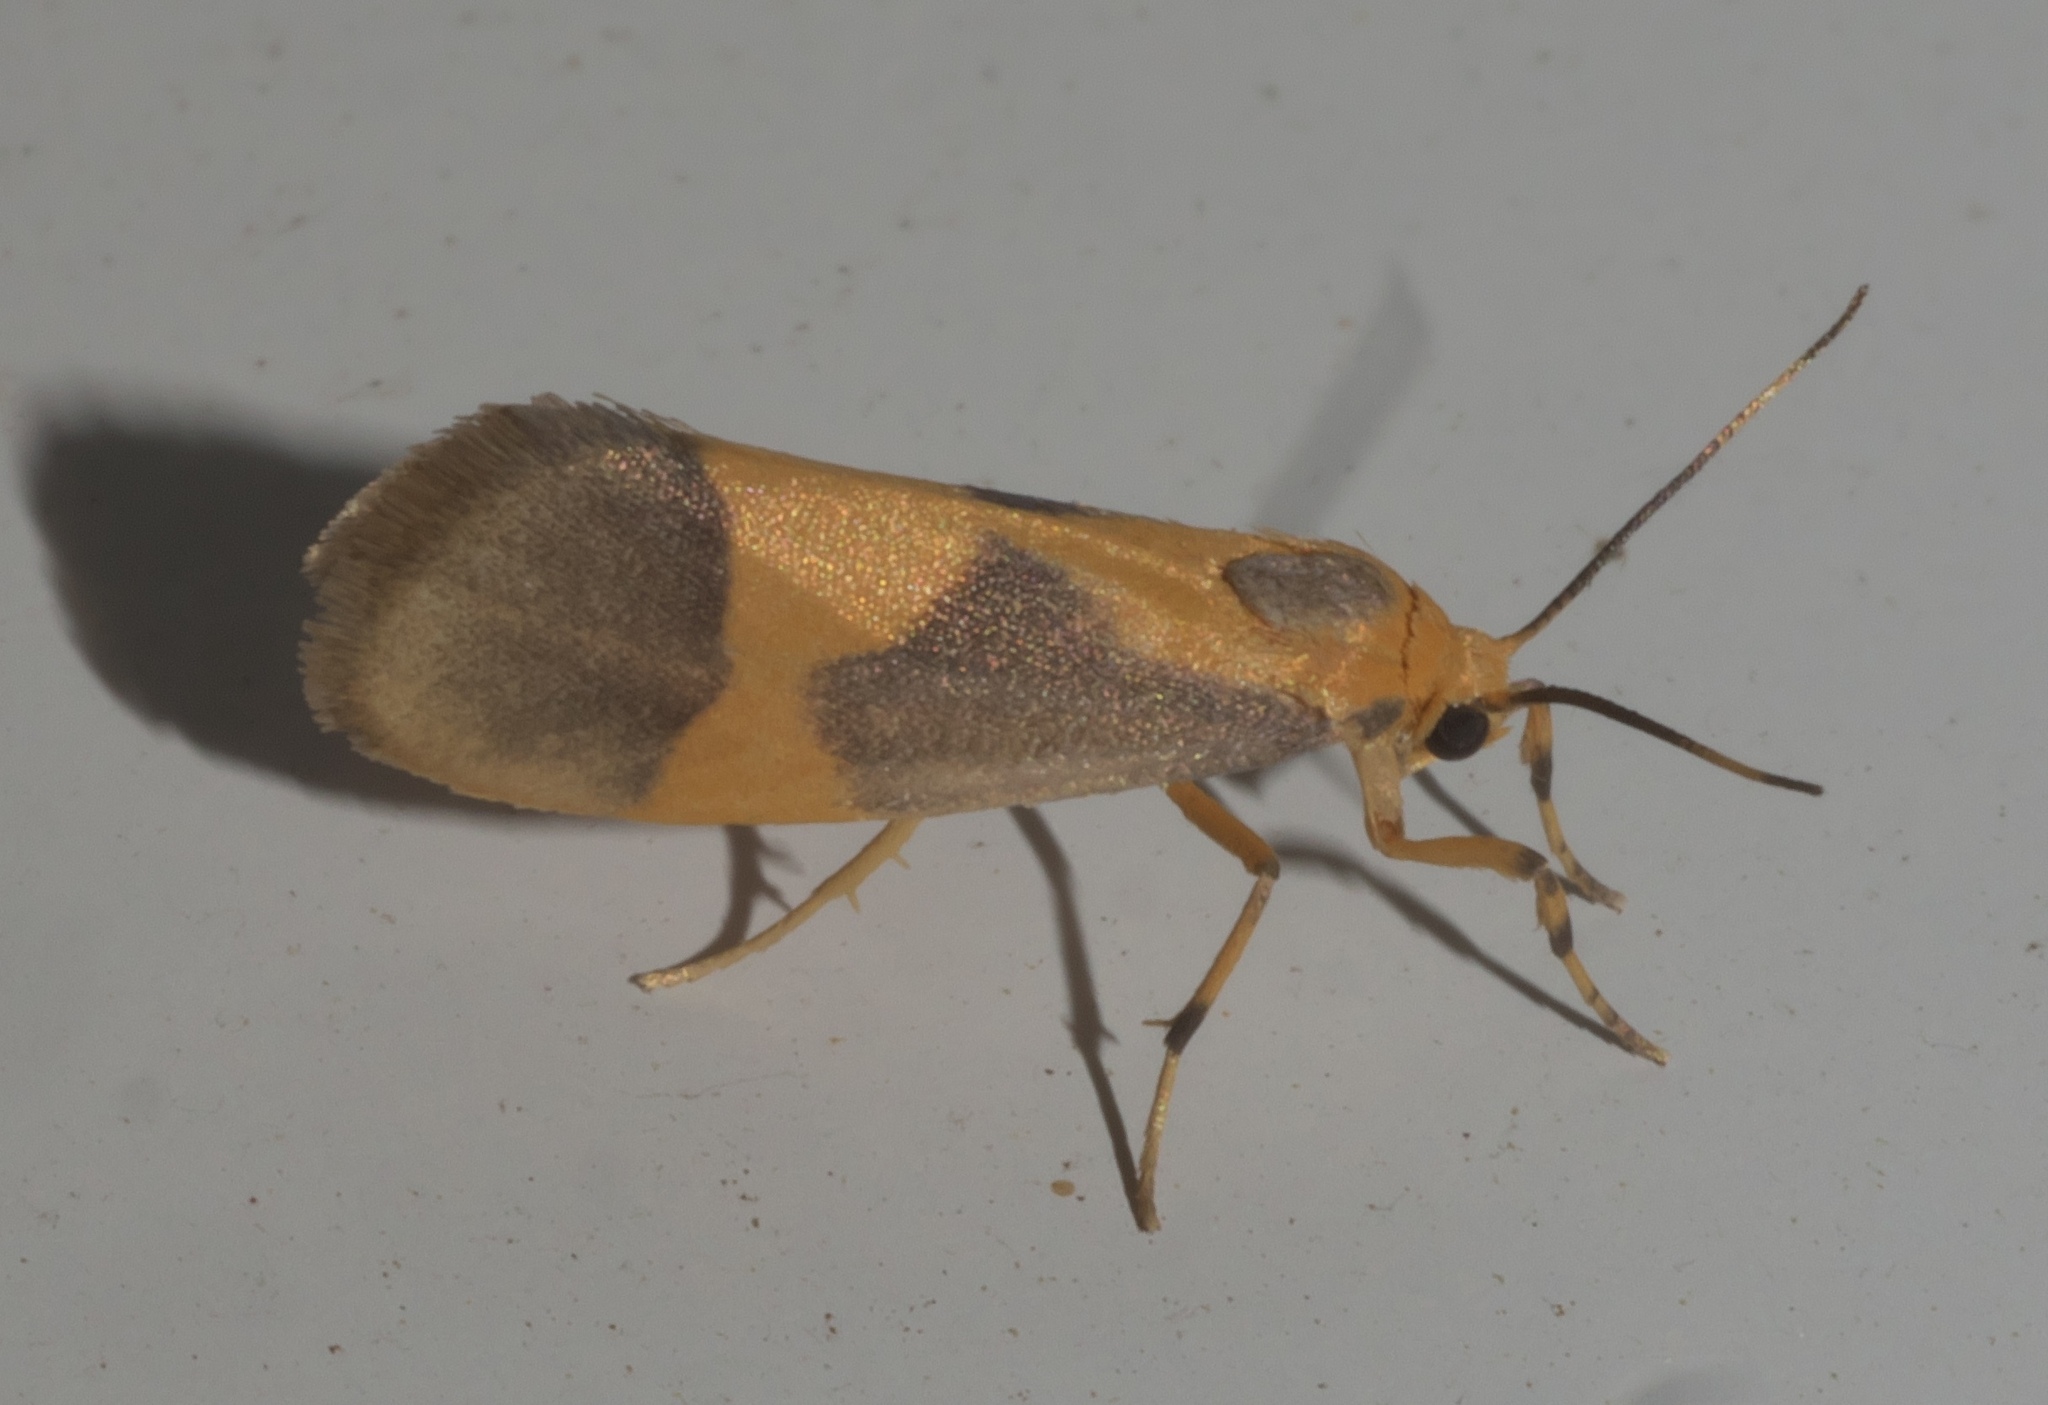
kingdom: Animalia
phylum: Arthropoda
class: Insecta
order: Lepidoptera
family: Erebidae
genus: Cisthene
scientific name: Cisthene unifascia
